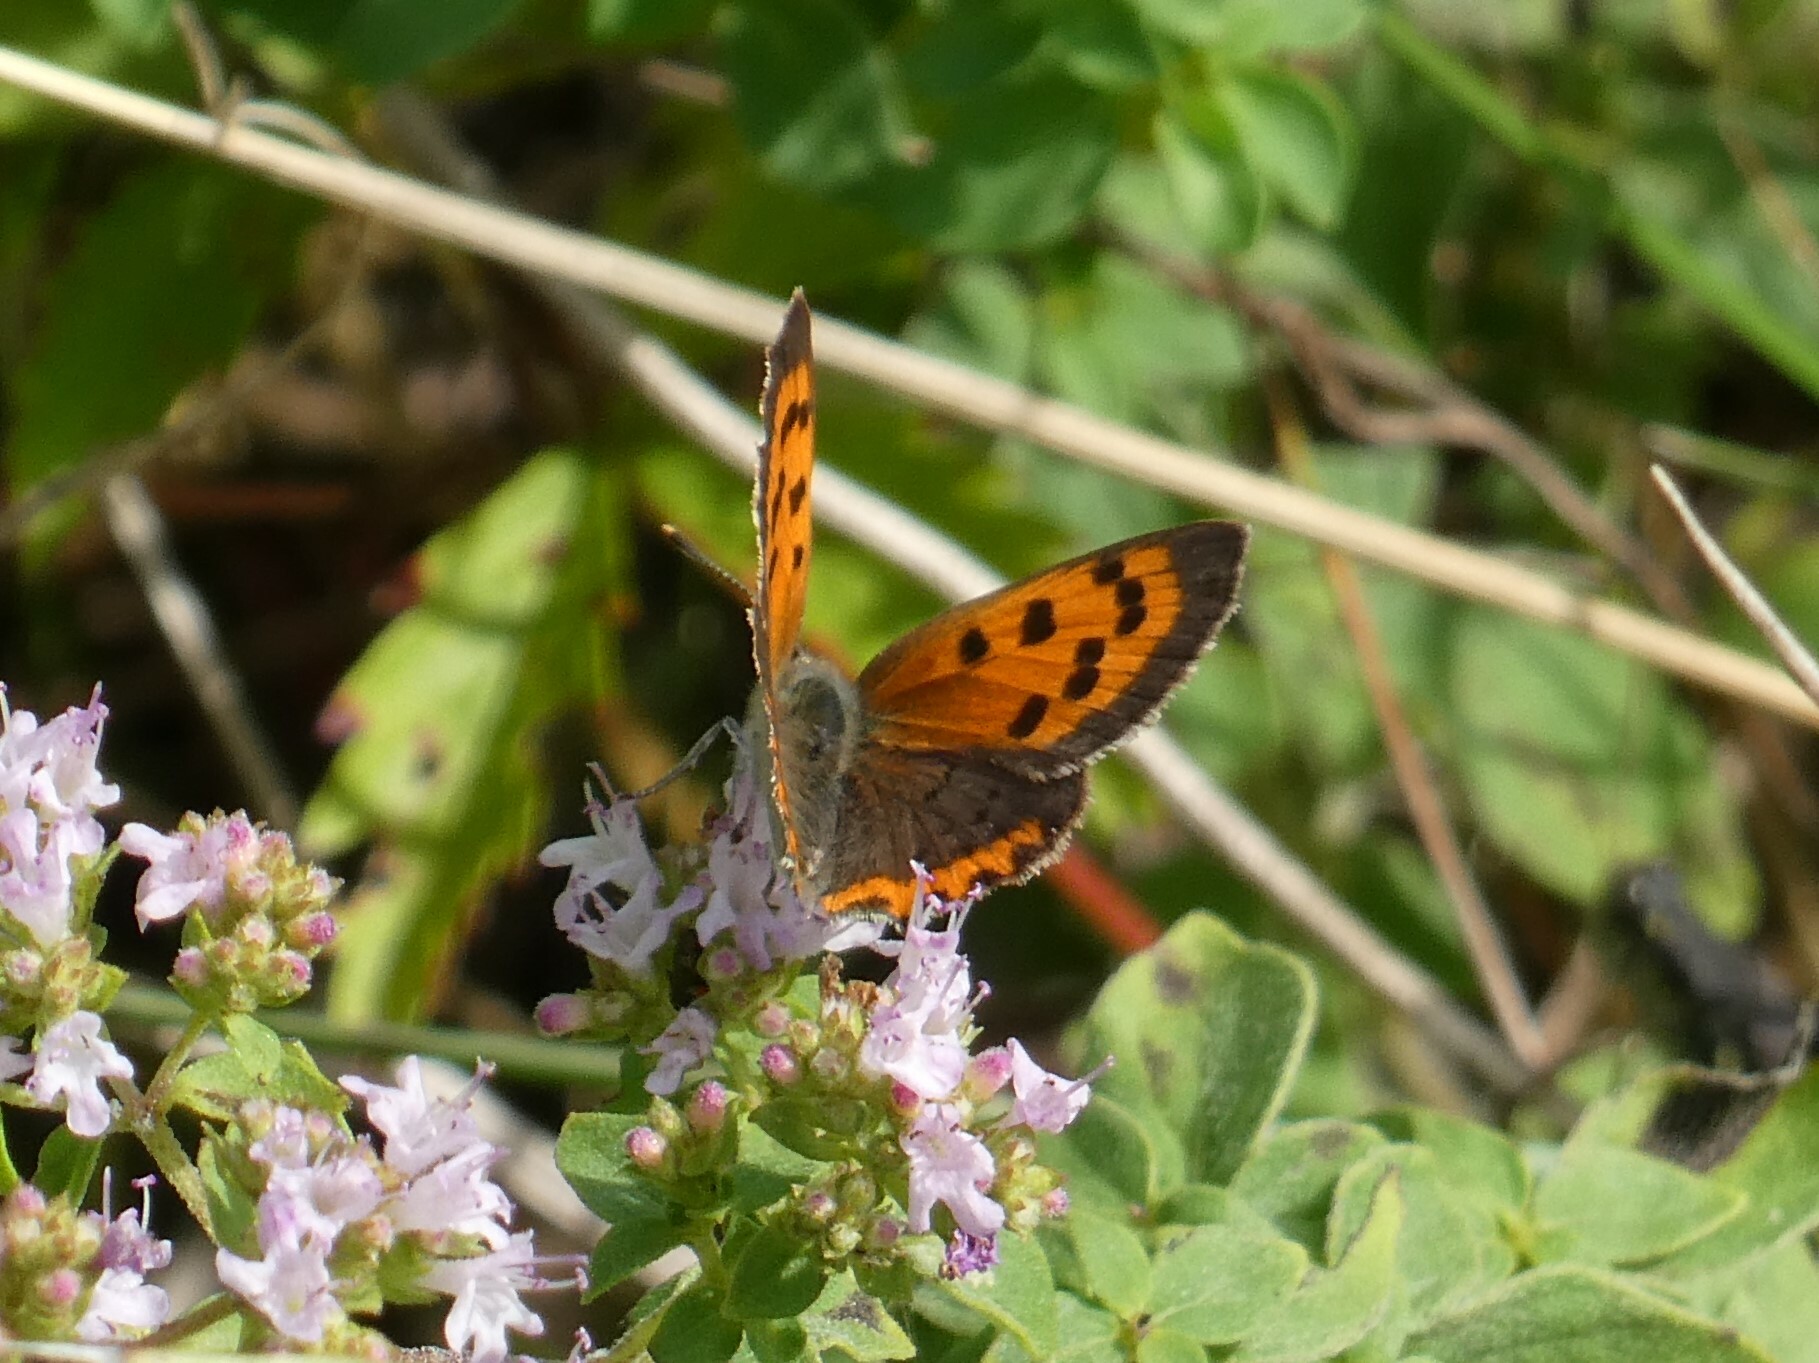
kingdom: Animalia
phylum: Arthropoda
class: Insecta
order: Lepidoptera
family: Lycaenidae
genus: Lycaena
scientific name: Lycaena hypophlaeas
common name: American copper
